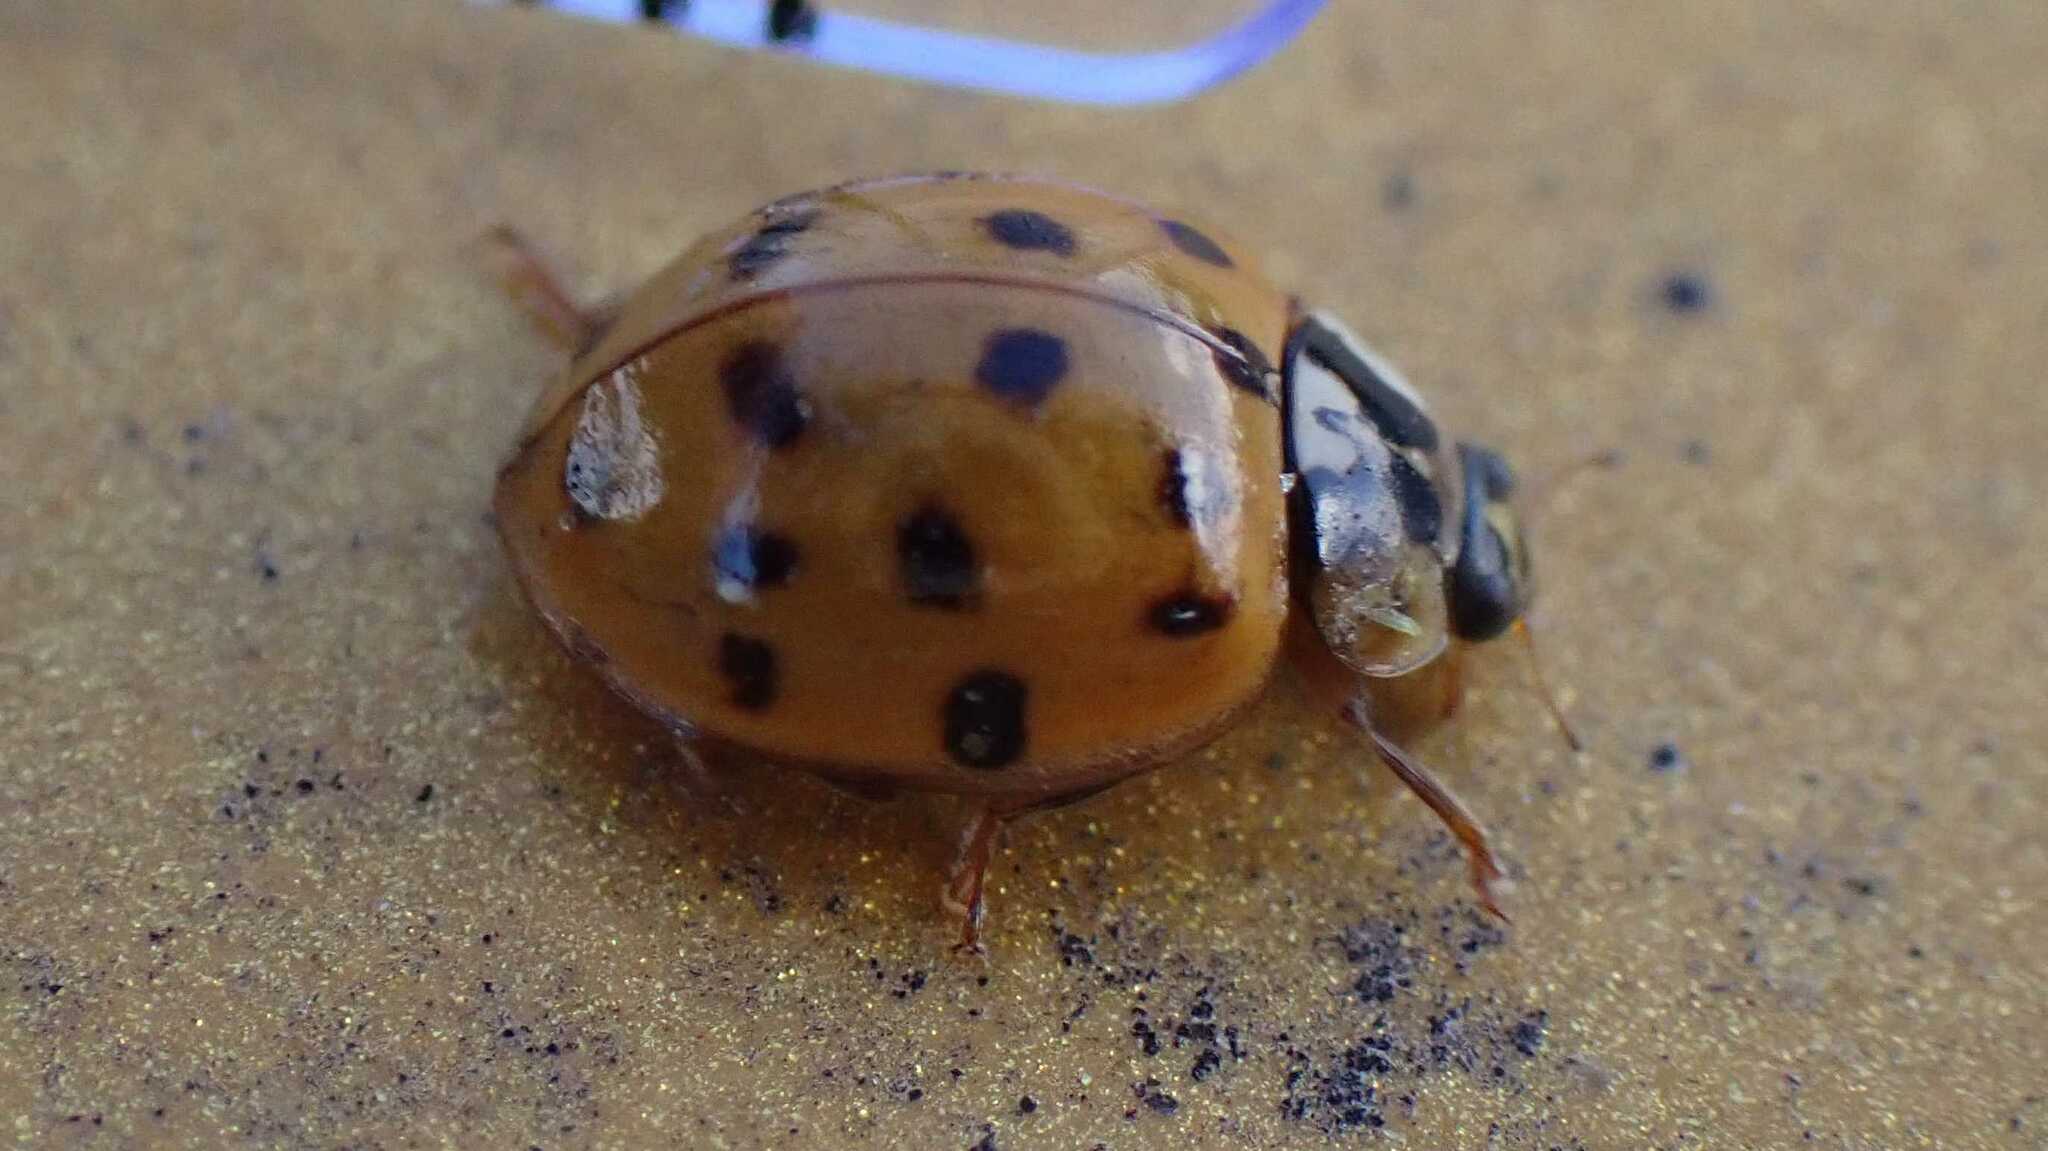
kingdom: Fungi
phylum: Ascomycota
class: Laboulbeniomycetes
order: Laboulbeniales
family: Laboulbeniaceae
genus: Hesperomyces
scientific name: Hesperomyces harmoniae
